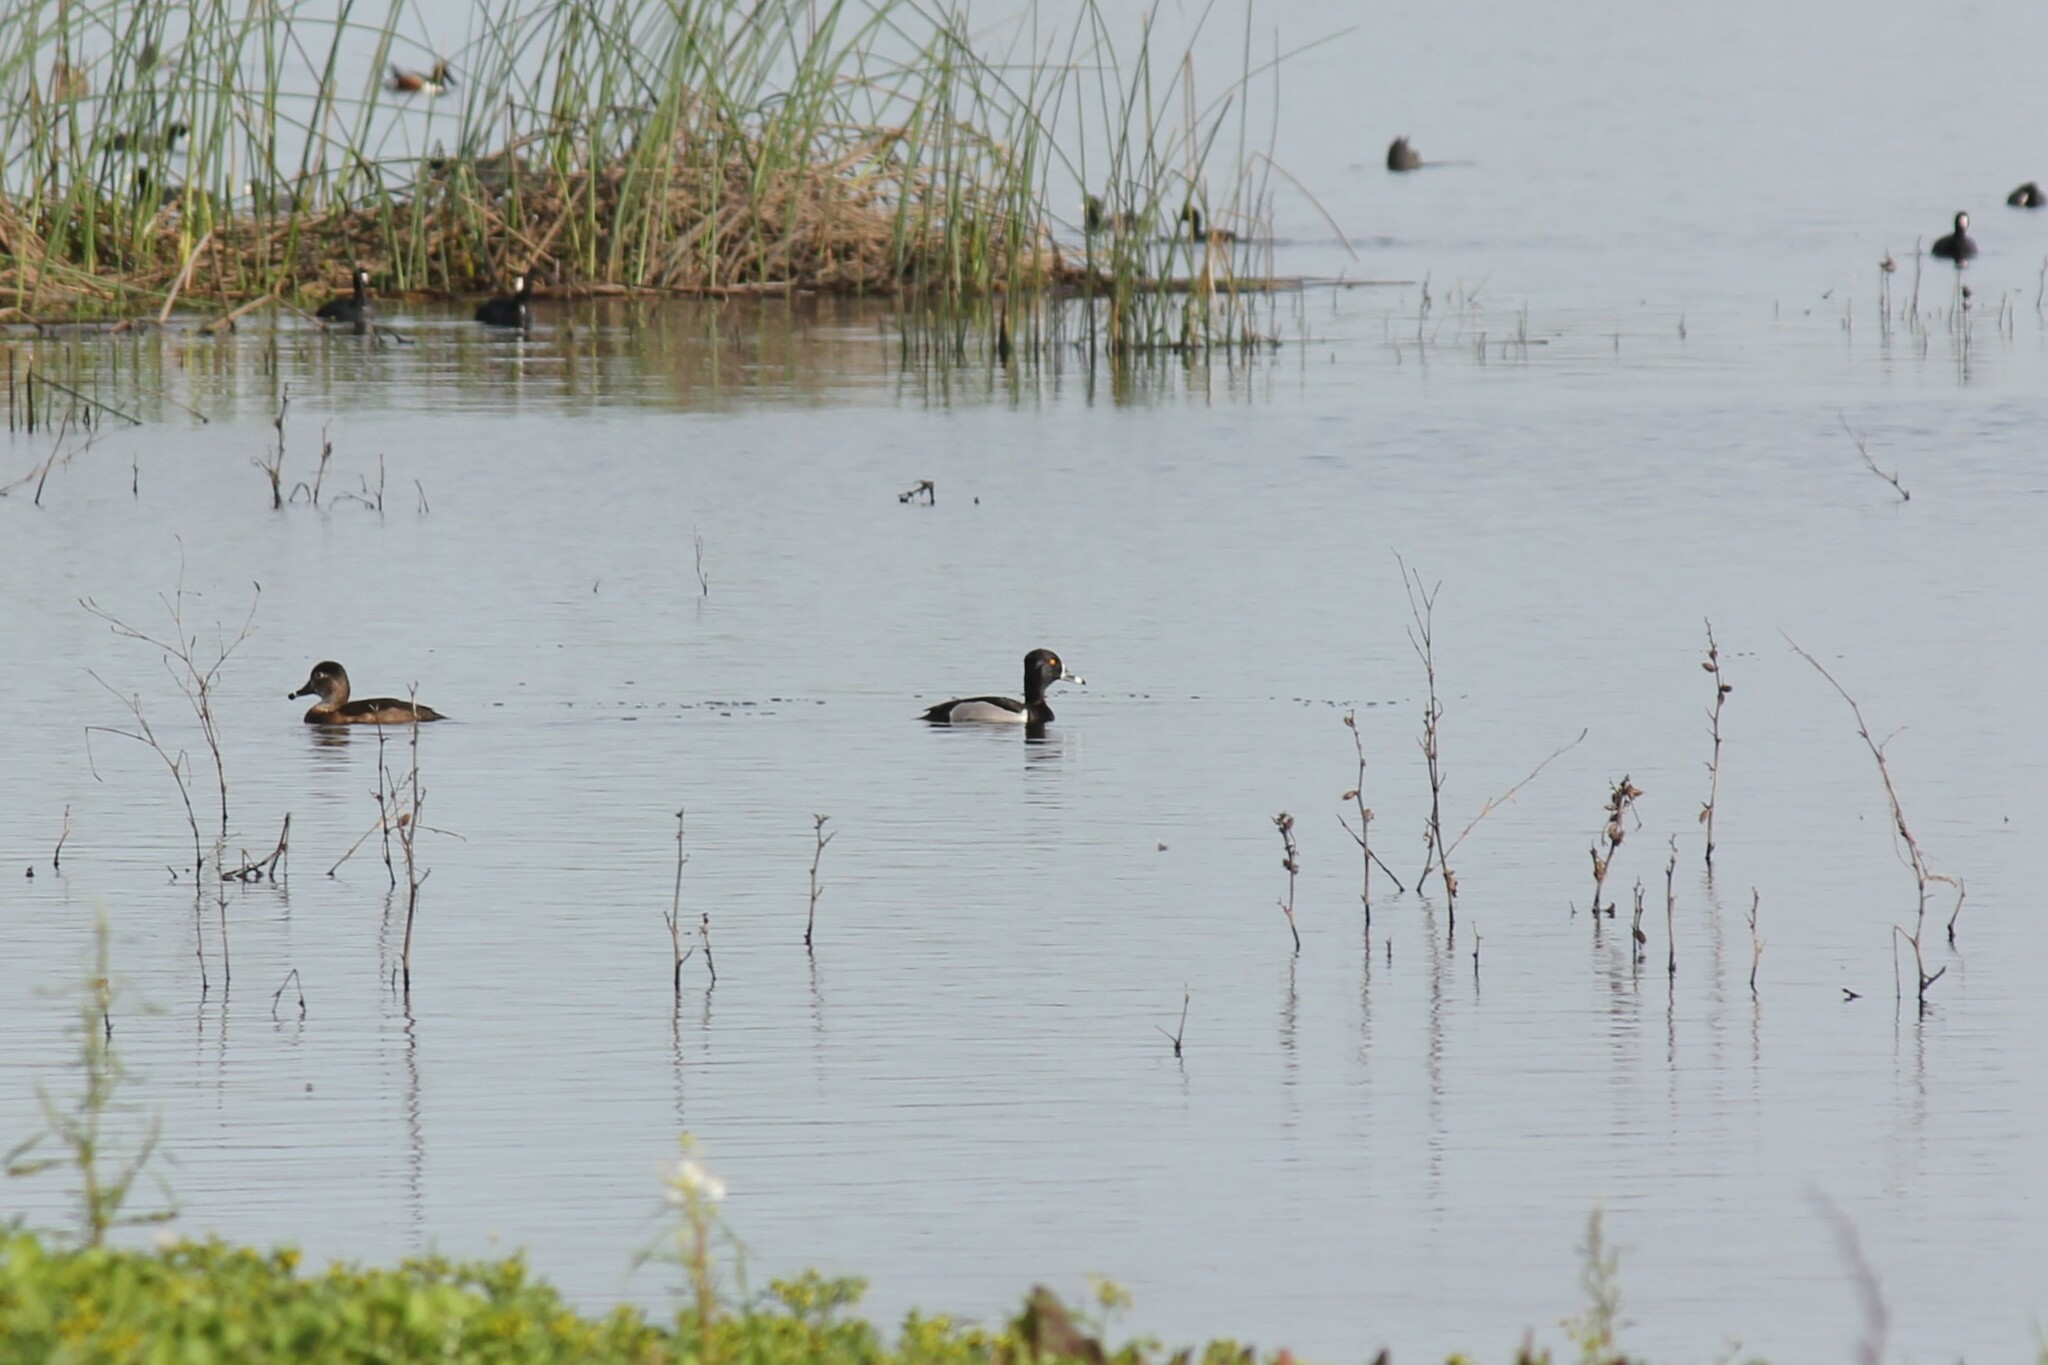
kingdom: Animalia
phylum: Chordata
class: Aves
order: Anseriformes
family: Anatidae
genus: Aythya
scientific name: Aythya collaris
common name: Ring-necked duck
